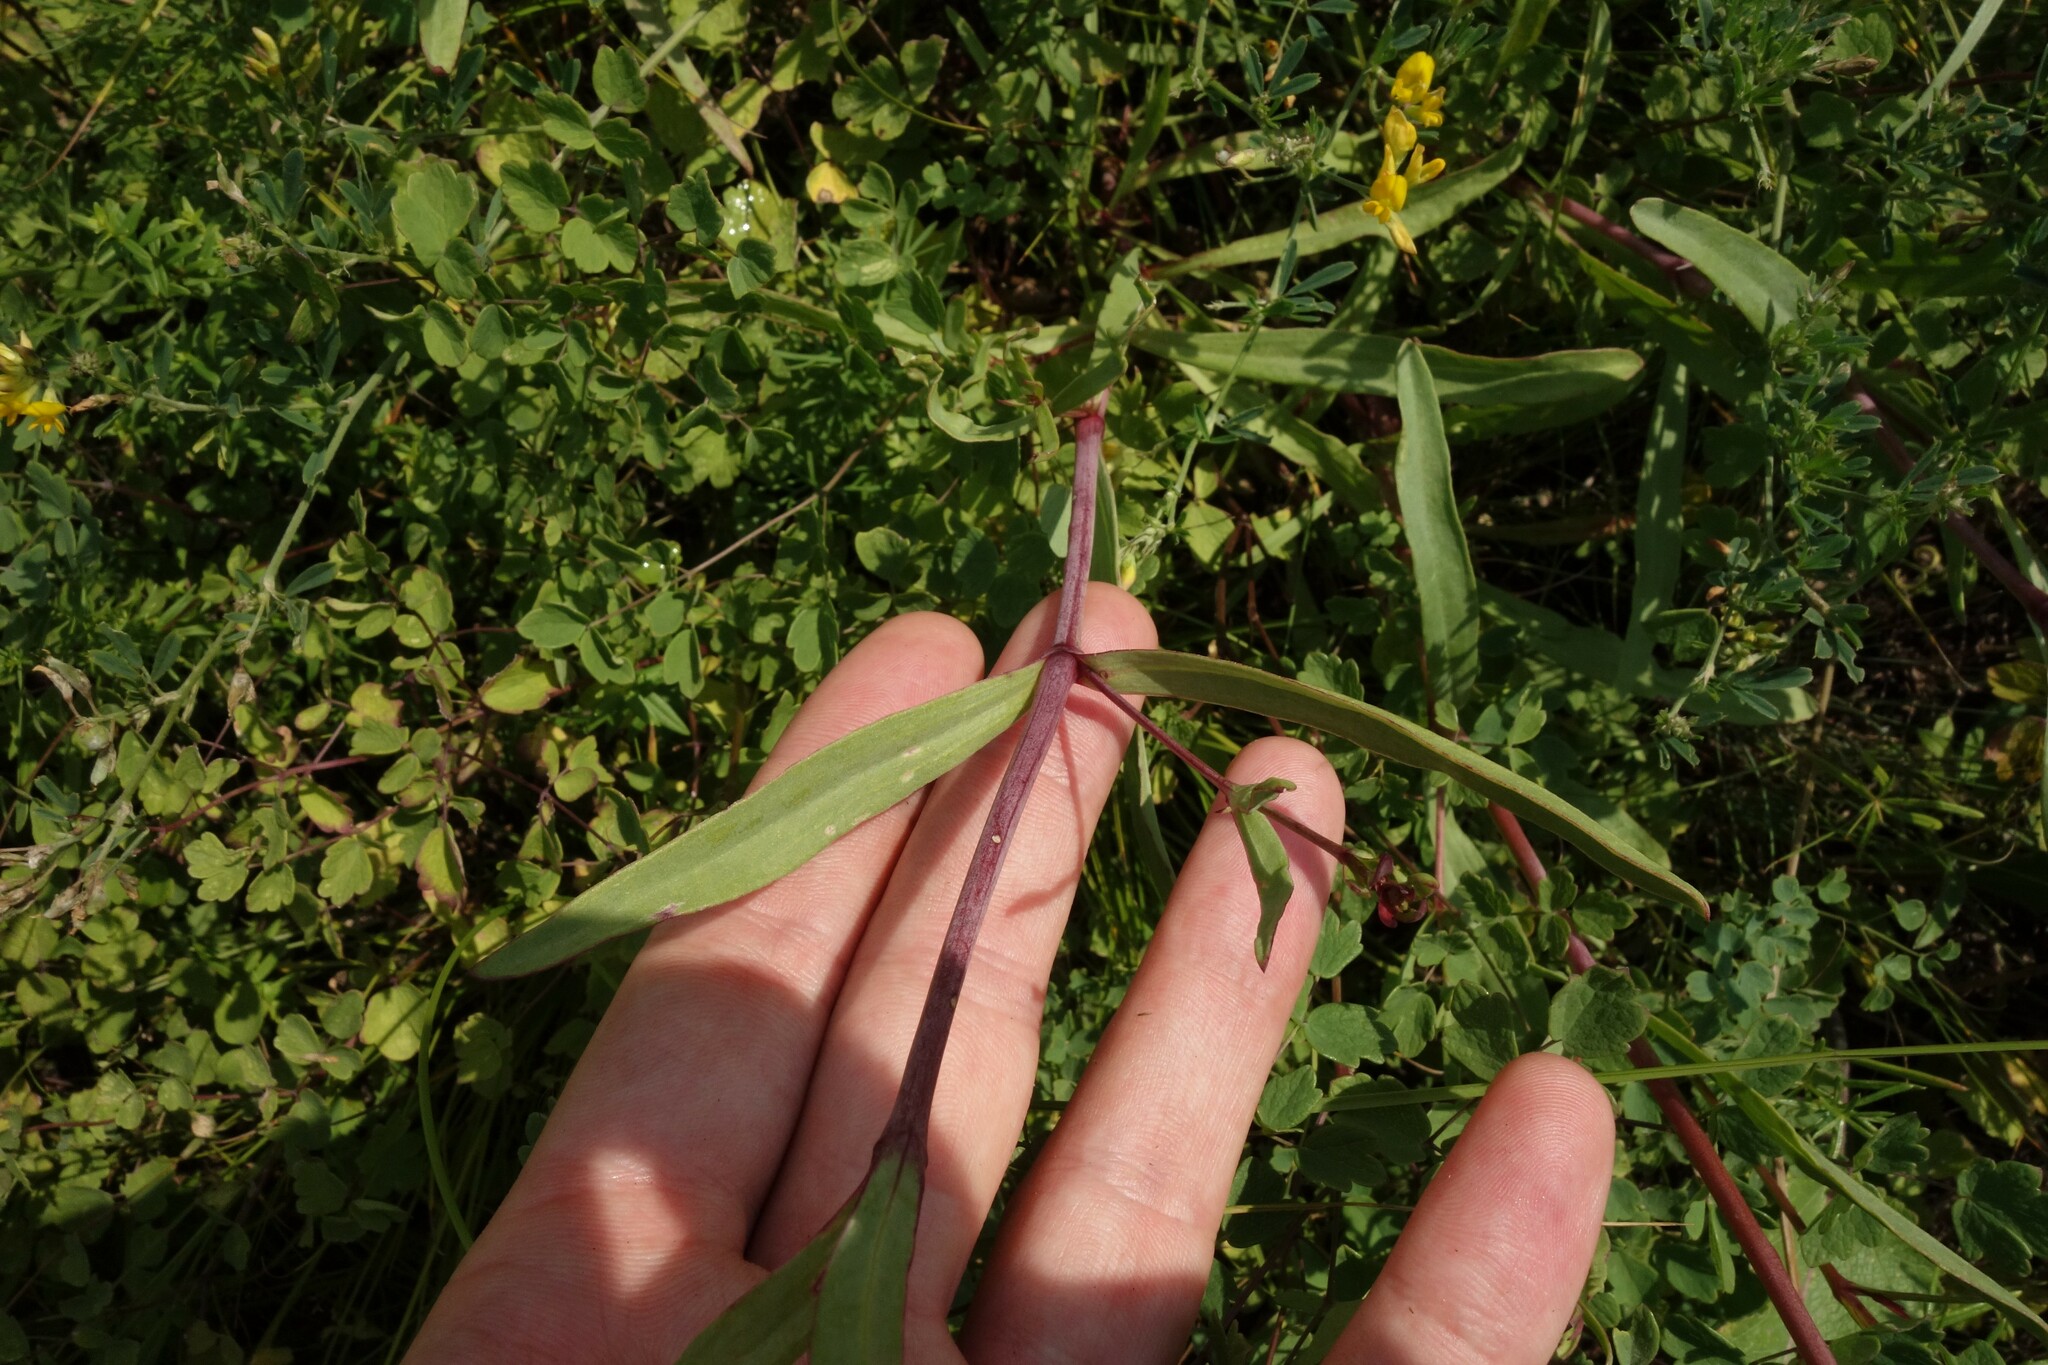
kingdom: Plantae
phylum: Tracheophyta
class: Magnoliopsida
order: Caryophyllales
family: Caryophyllaceae
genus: Gypsophila
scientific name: Gypsophila altissima
